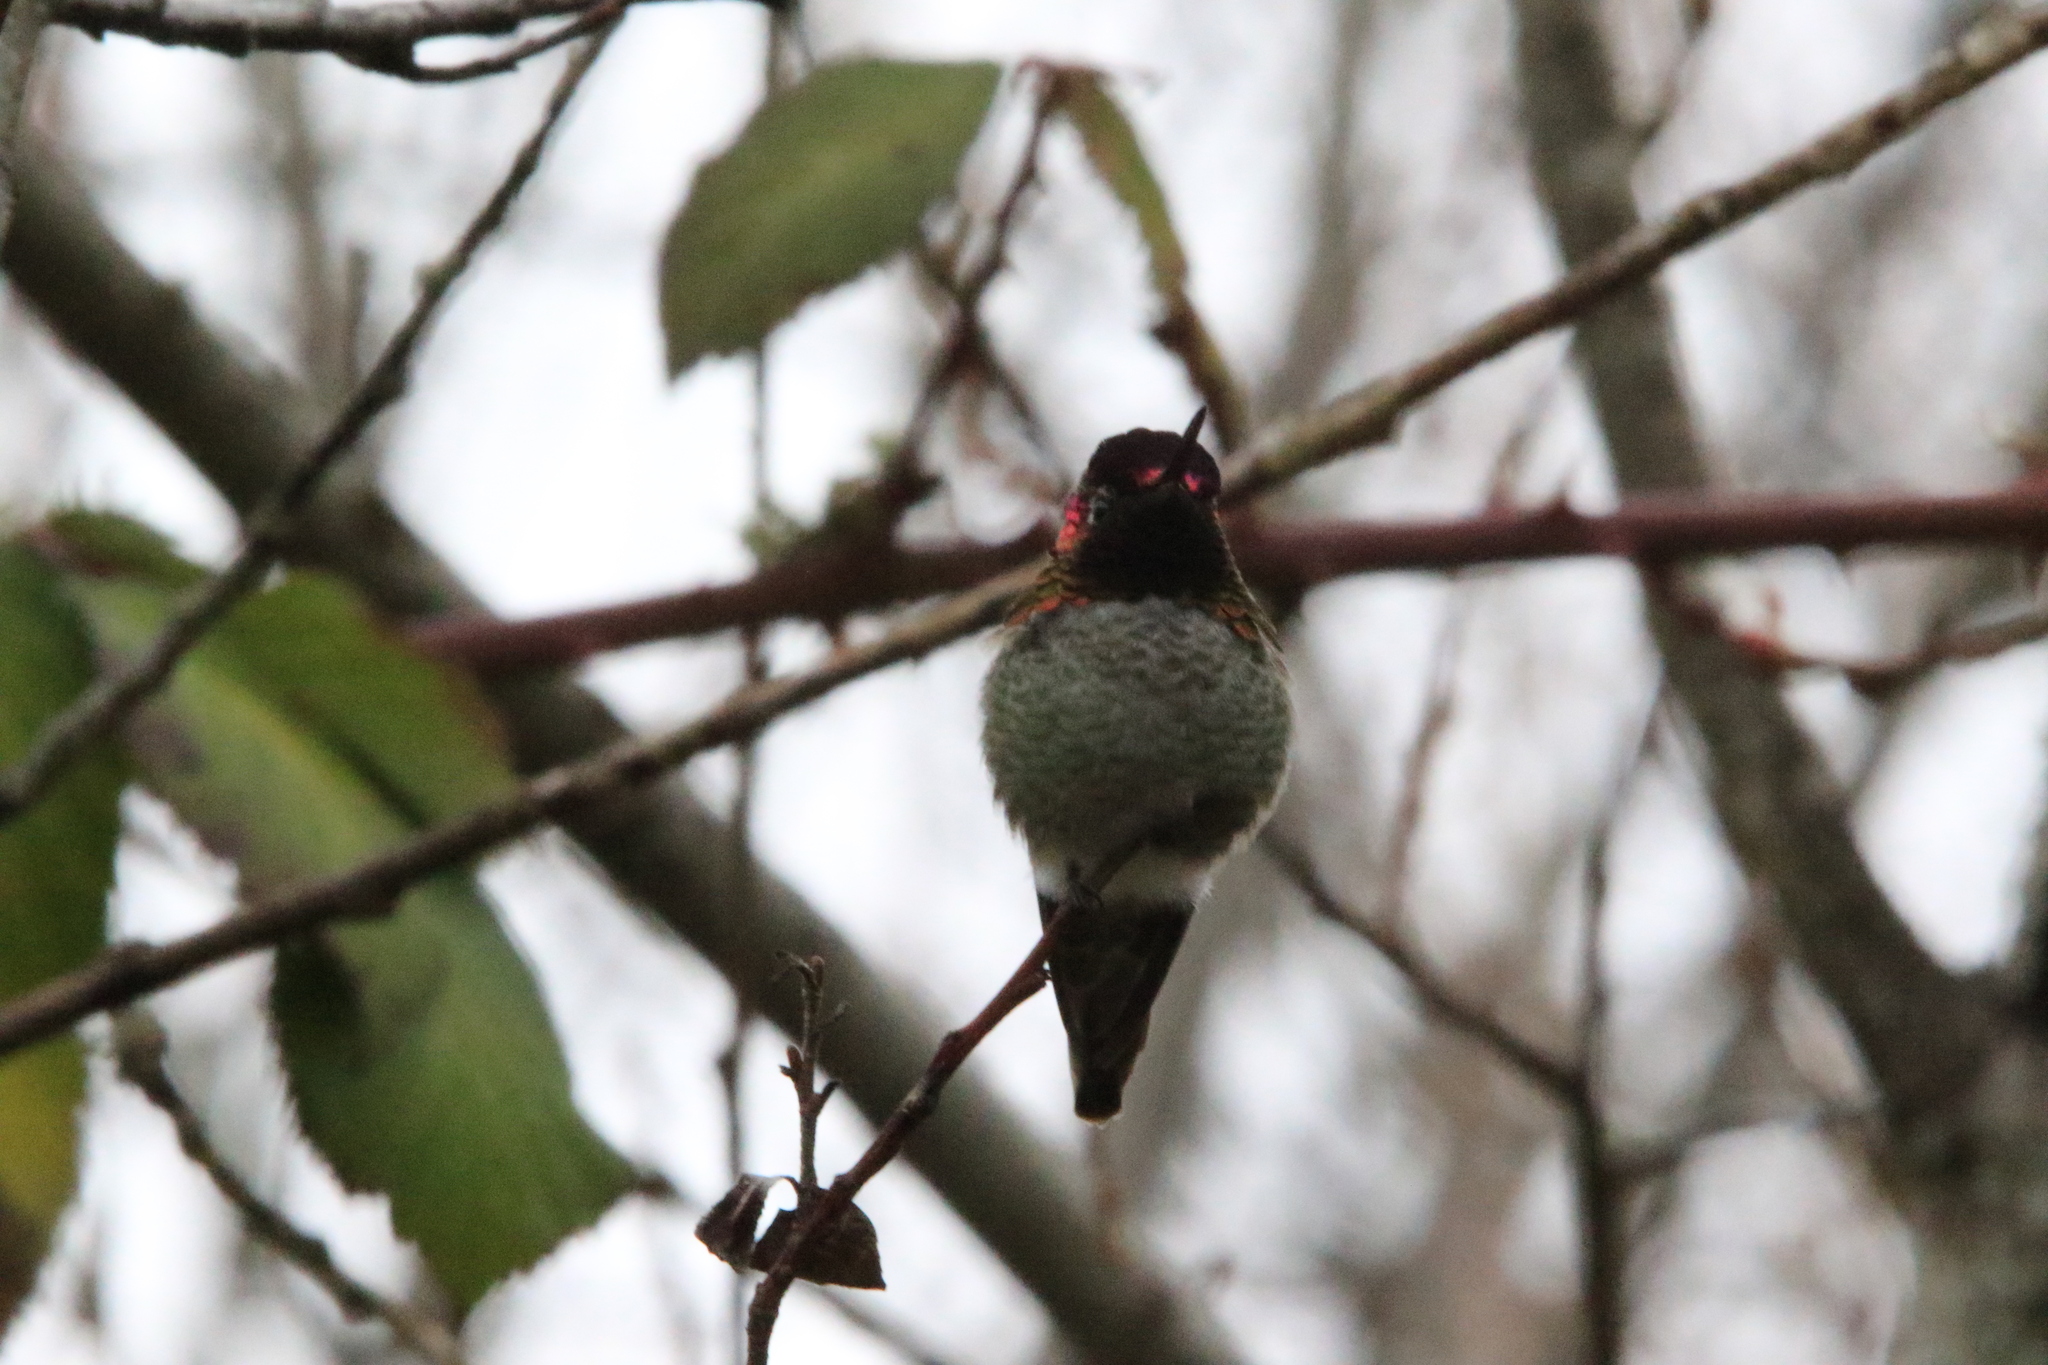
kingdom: Animalia
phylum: Chordata
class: Aves
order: Apodiformes
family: Trochilidae
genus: Calypte
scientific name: Calypte anna
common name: Anna's hummingbird
